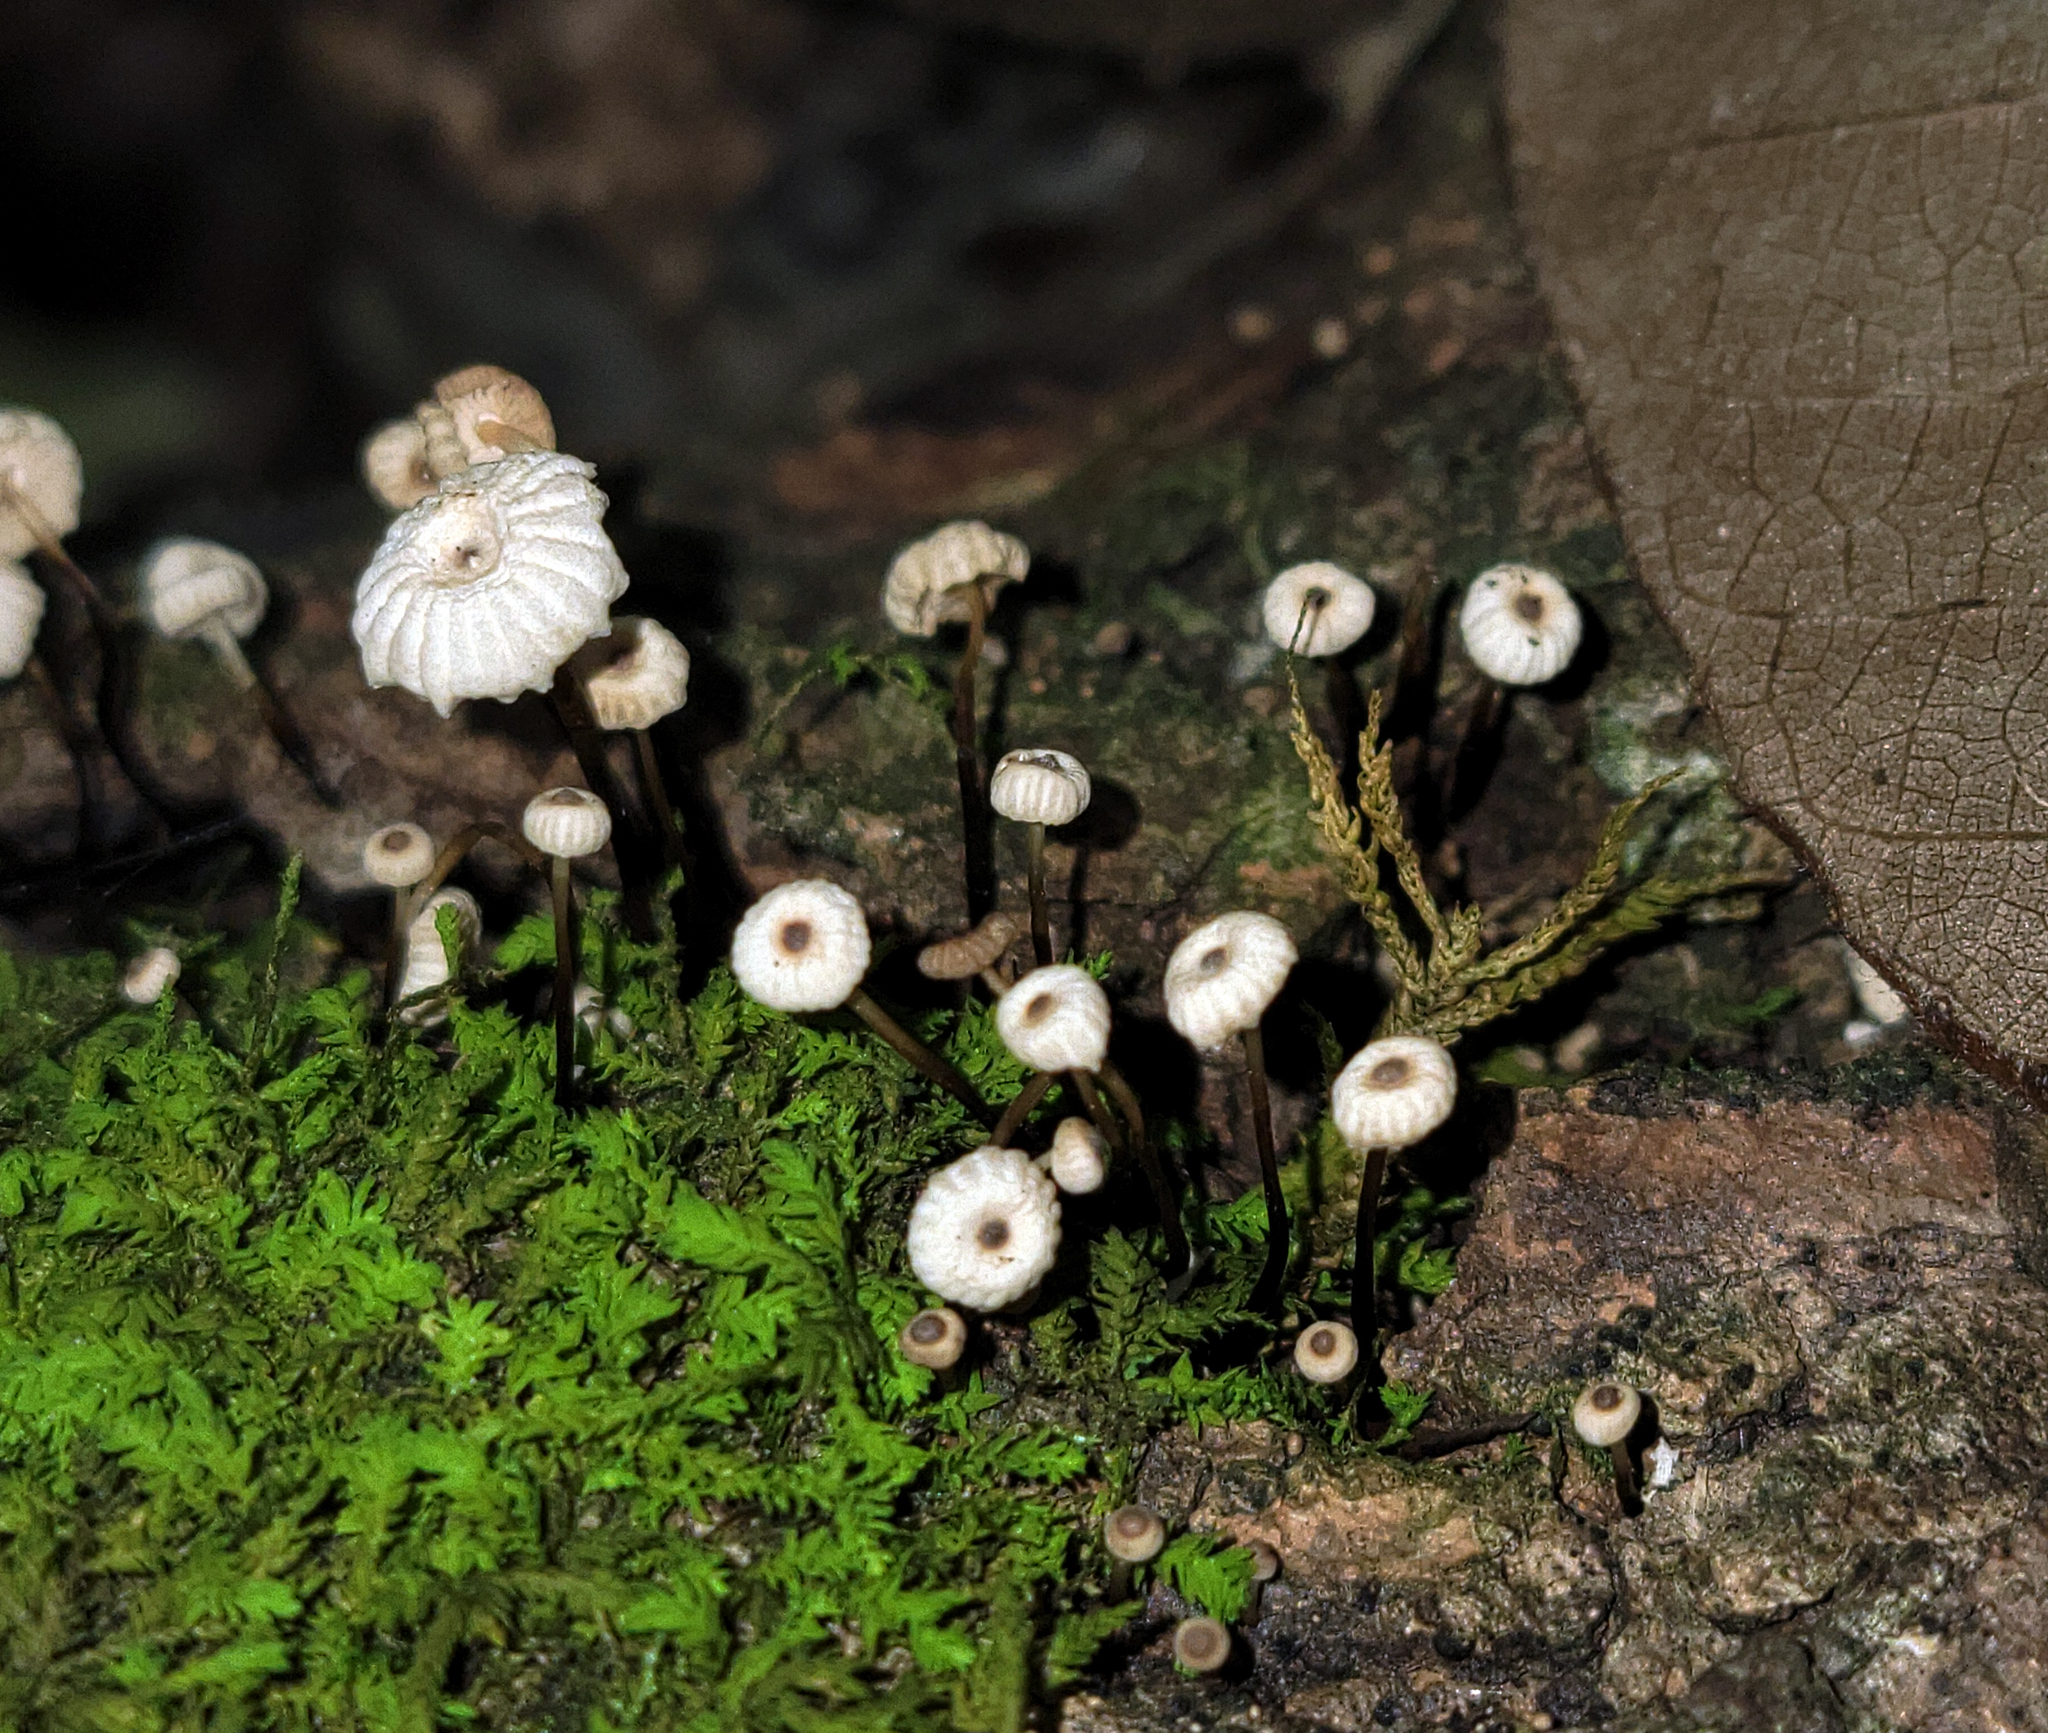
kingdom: Fungi
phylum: Basidiomycota
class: Agaricomycetes
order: Agaricales
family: Marasmiaceae
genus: Marasmius
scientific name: Marasmius rotula
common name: Collared parachute
